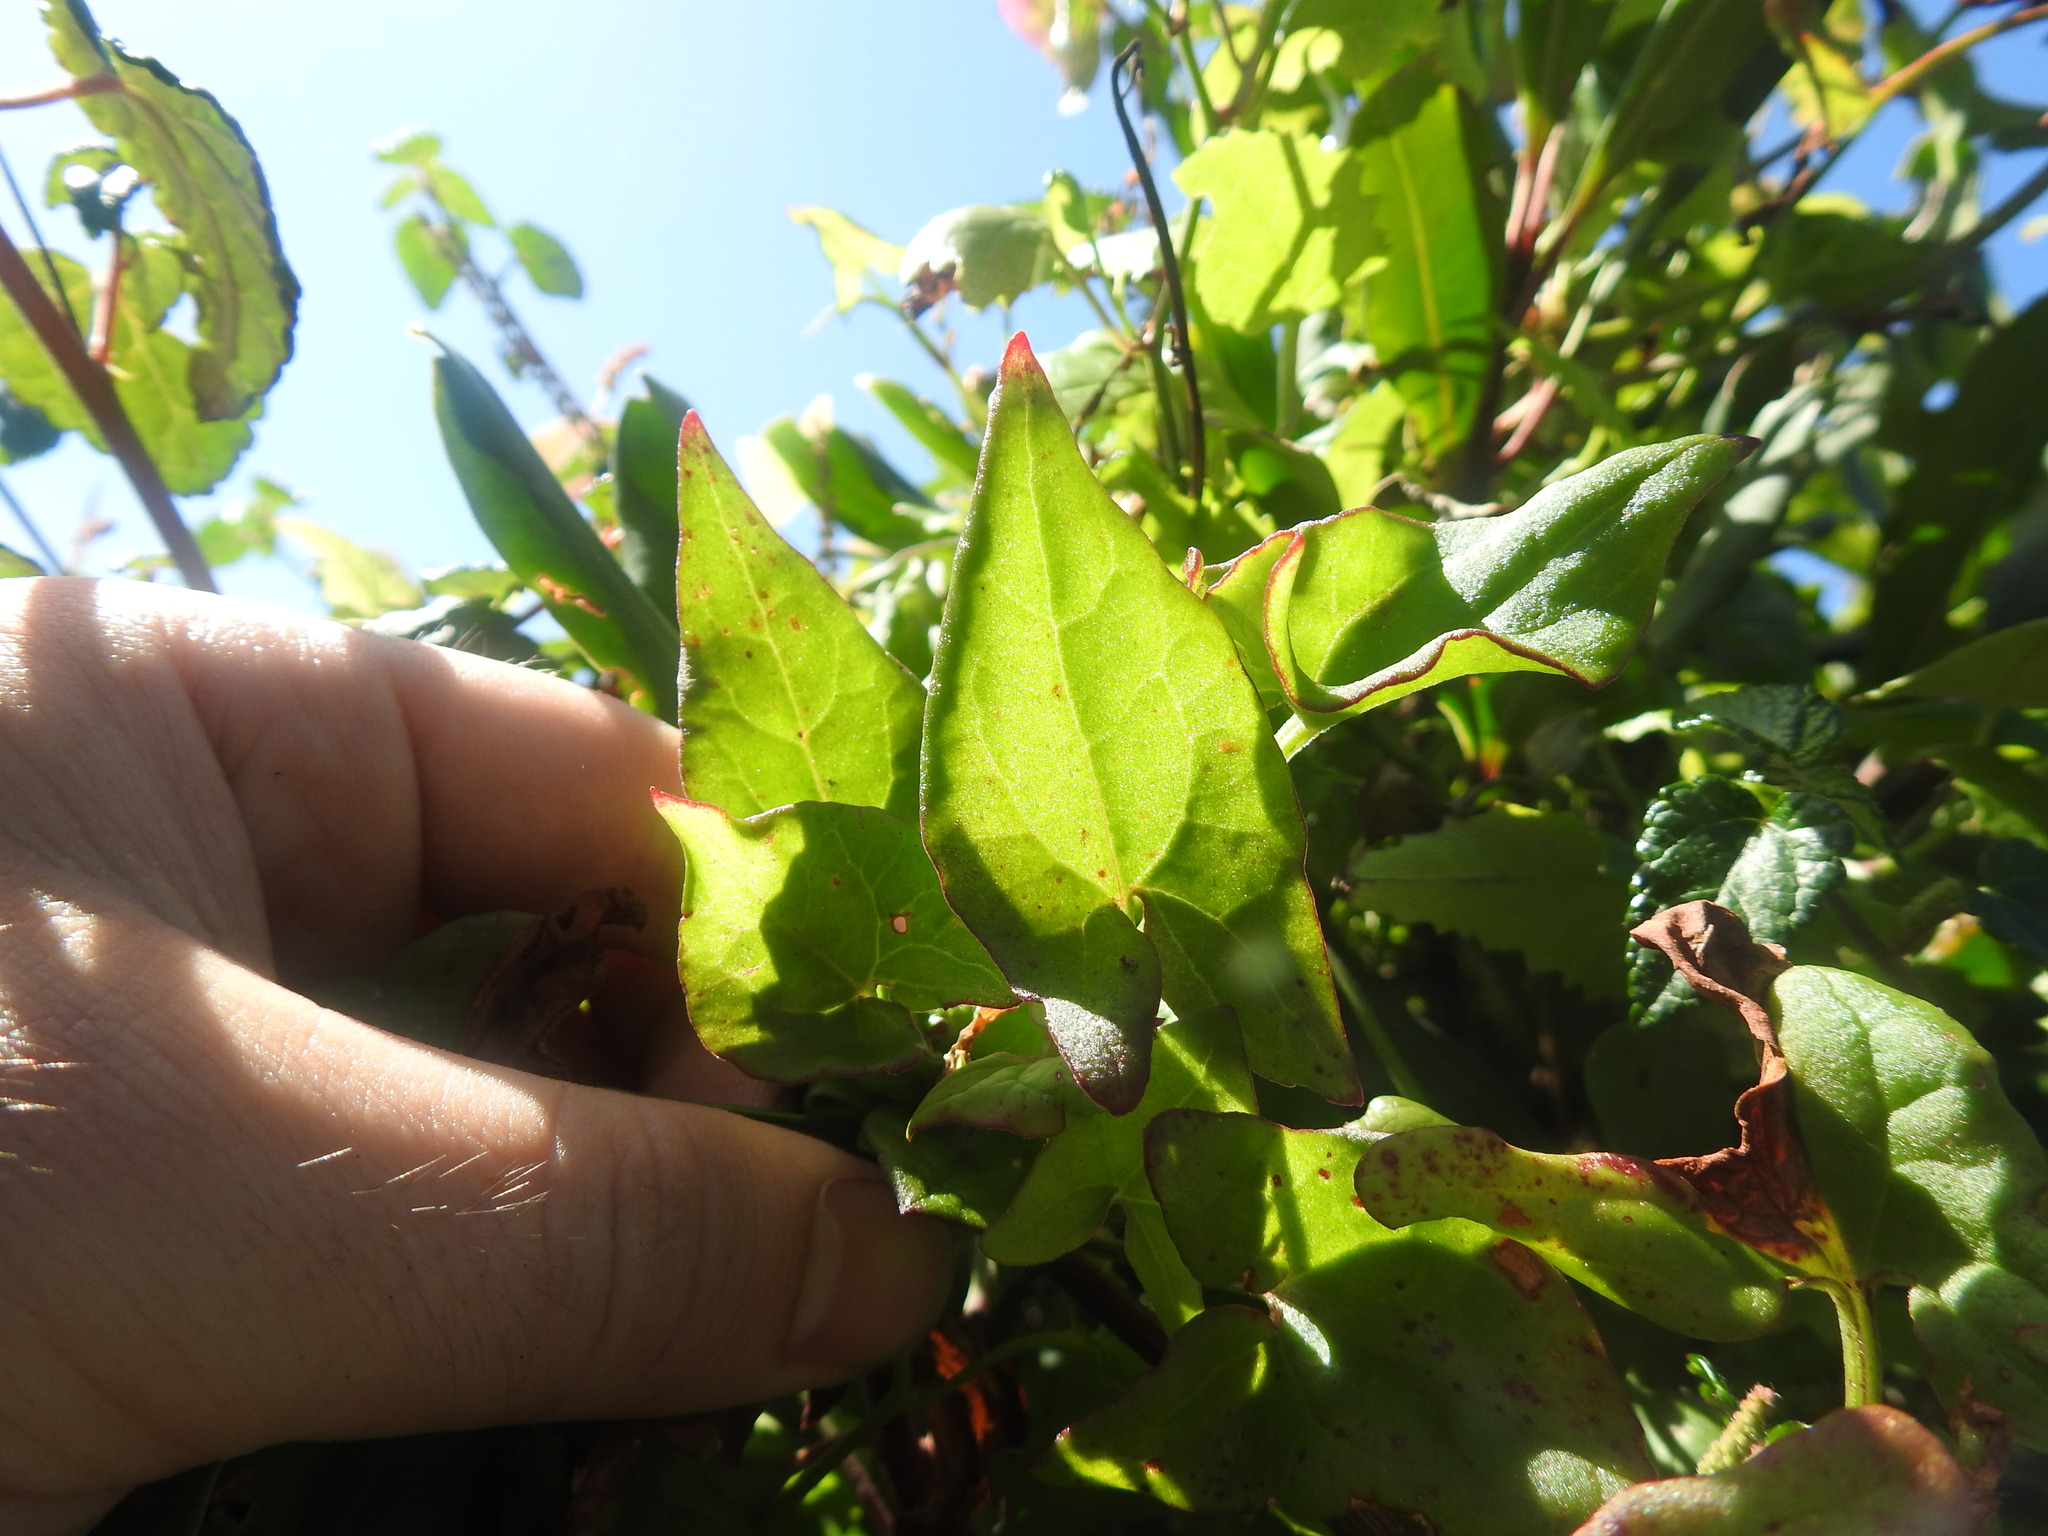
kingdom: Plantae
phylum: Tracheophyta
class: Magnoliopsida
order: Caryophyllales
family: Polygonaceae
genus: Rumex
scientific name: Rumex sagittatus
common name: Climbing dock
